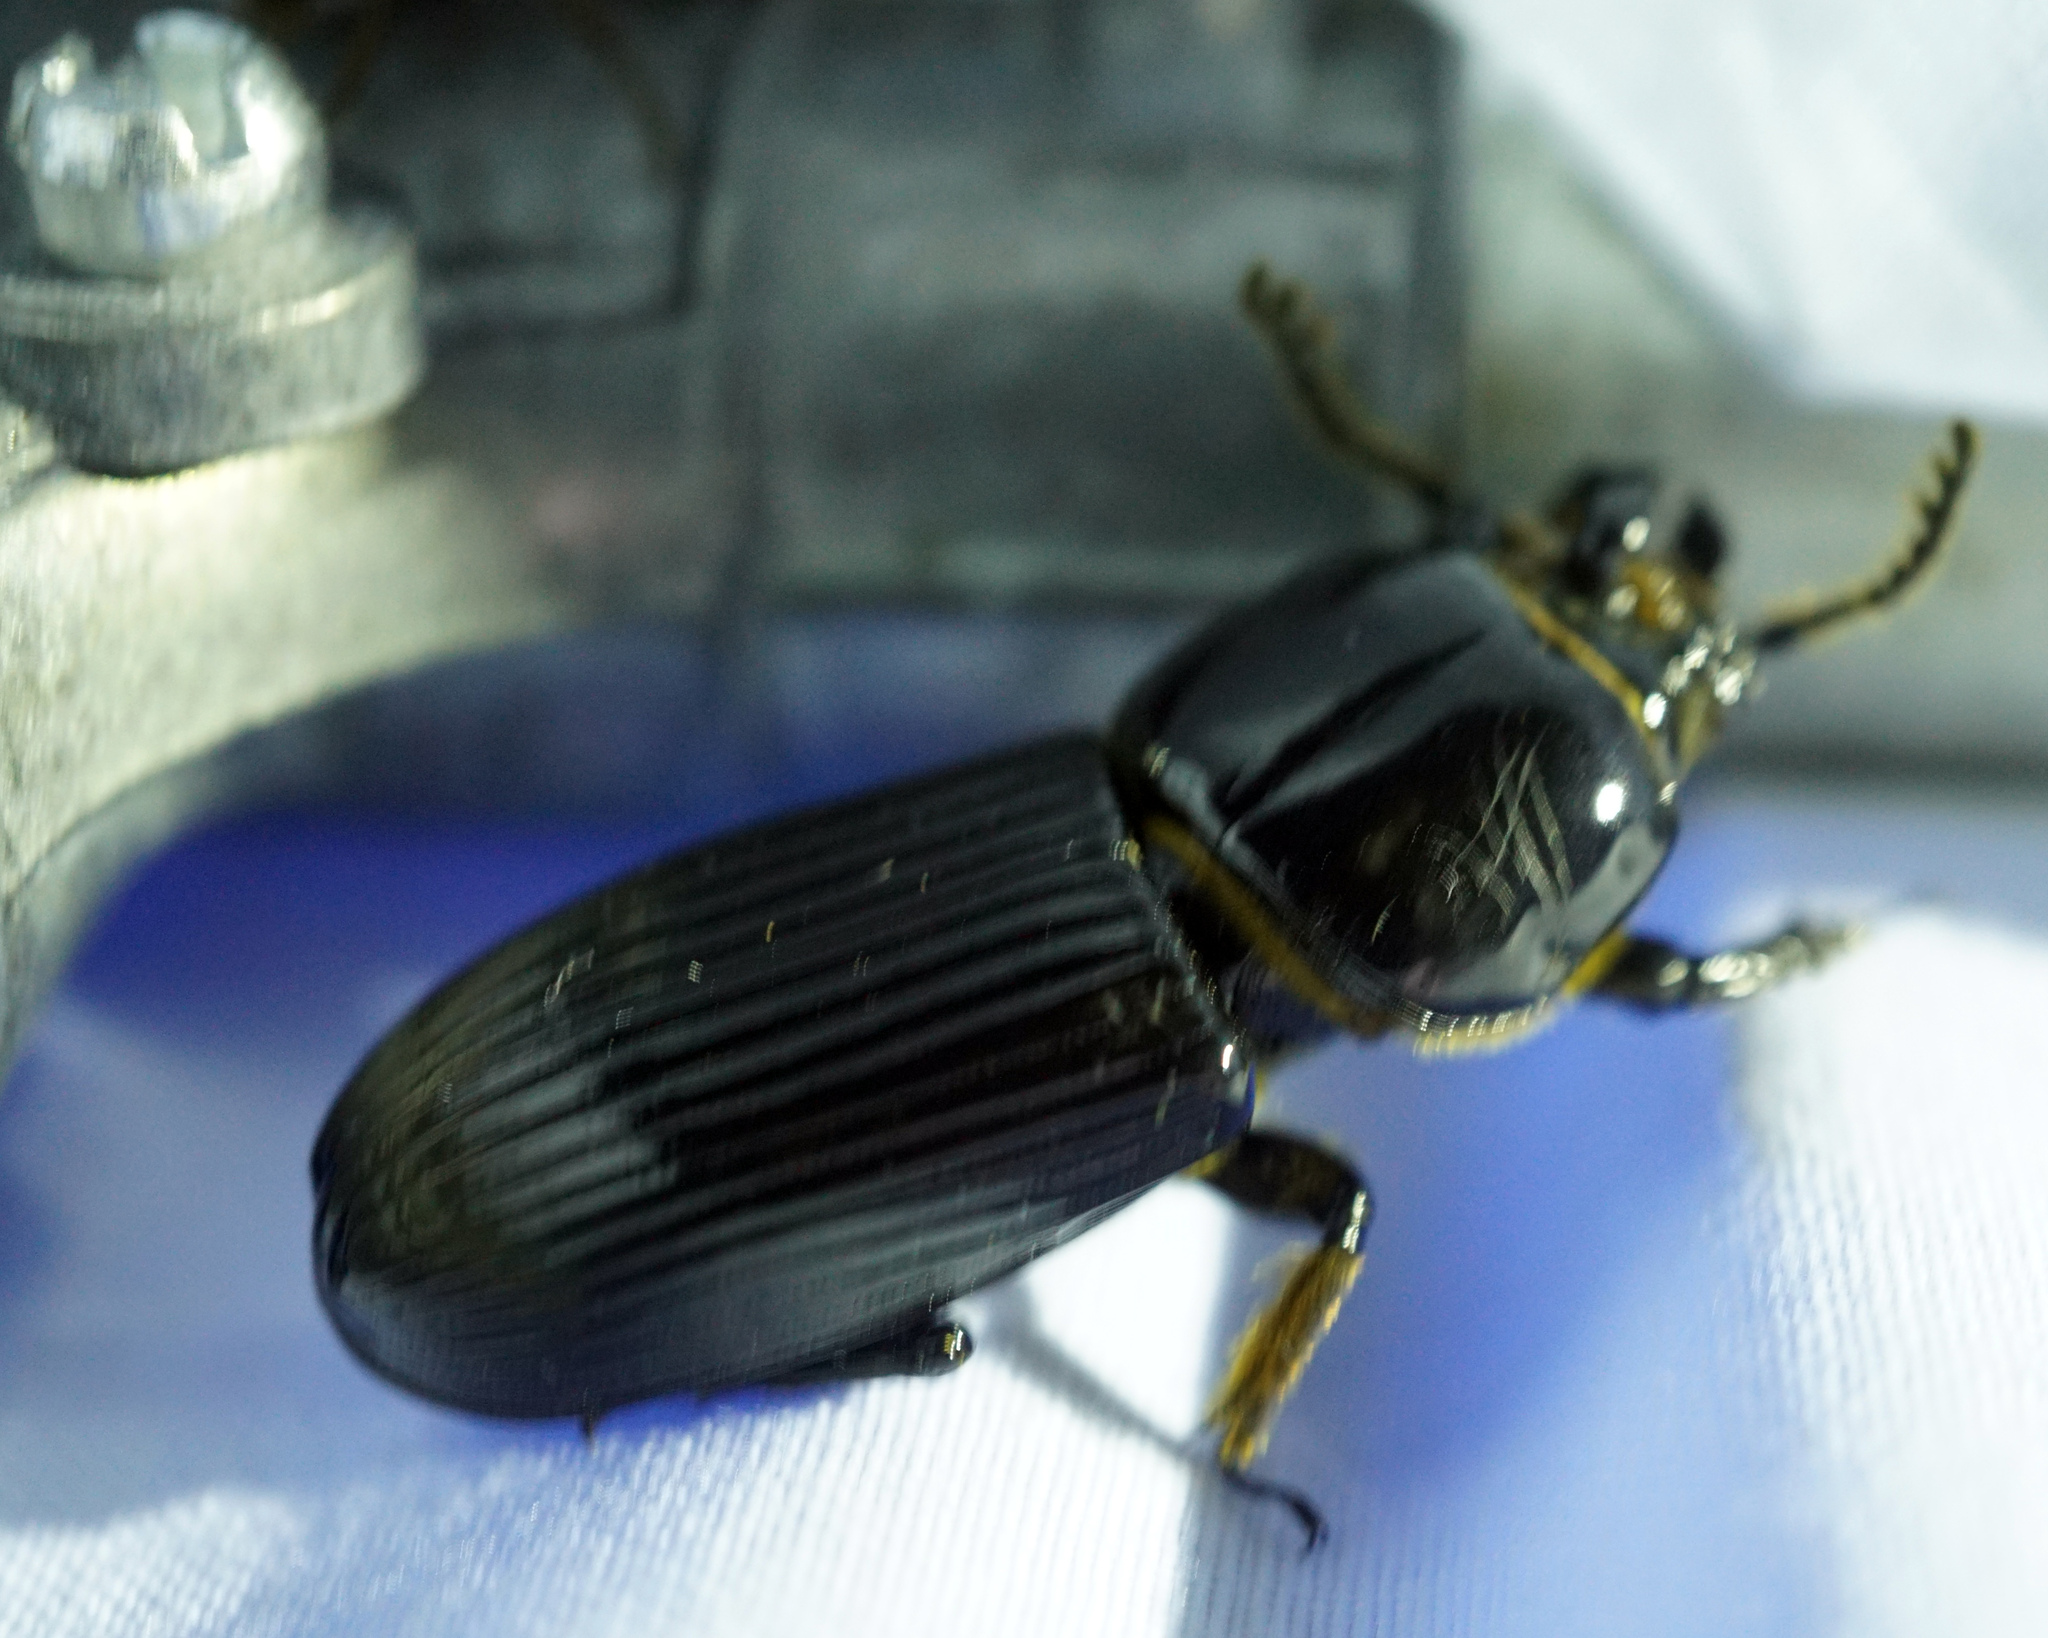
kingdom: Animalia
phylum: Arthropoda
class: Insecta
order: Coleoptera
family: Passalidae
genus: Odontotaenius
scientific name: Odontotaenius disjunctus
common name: Patent leather beetle
